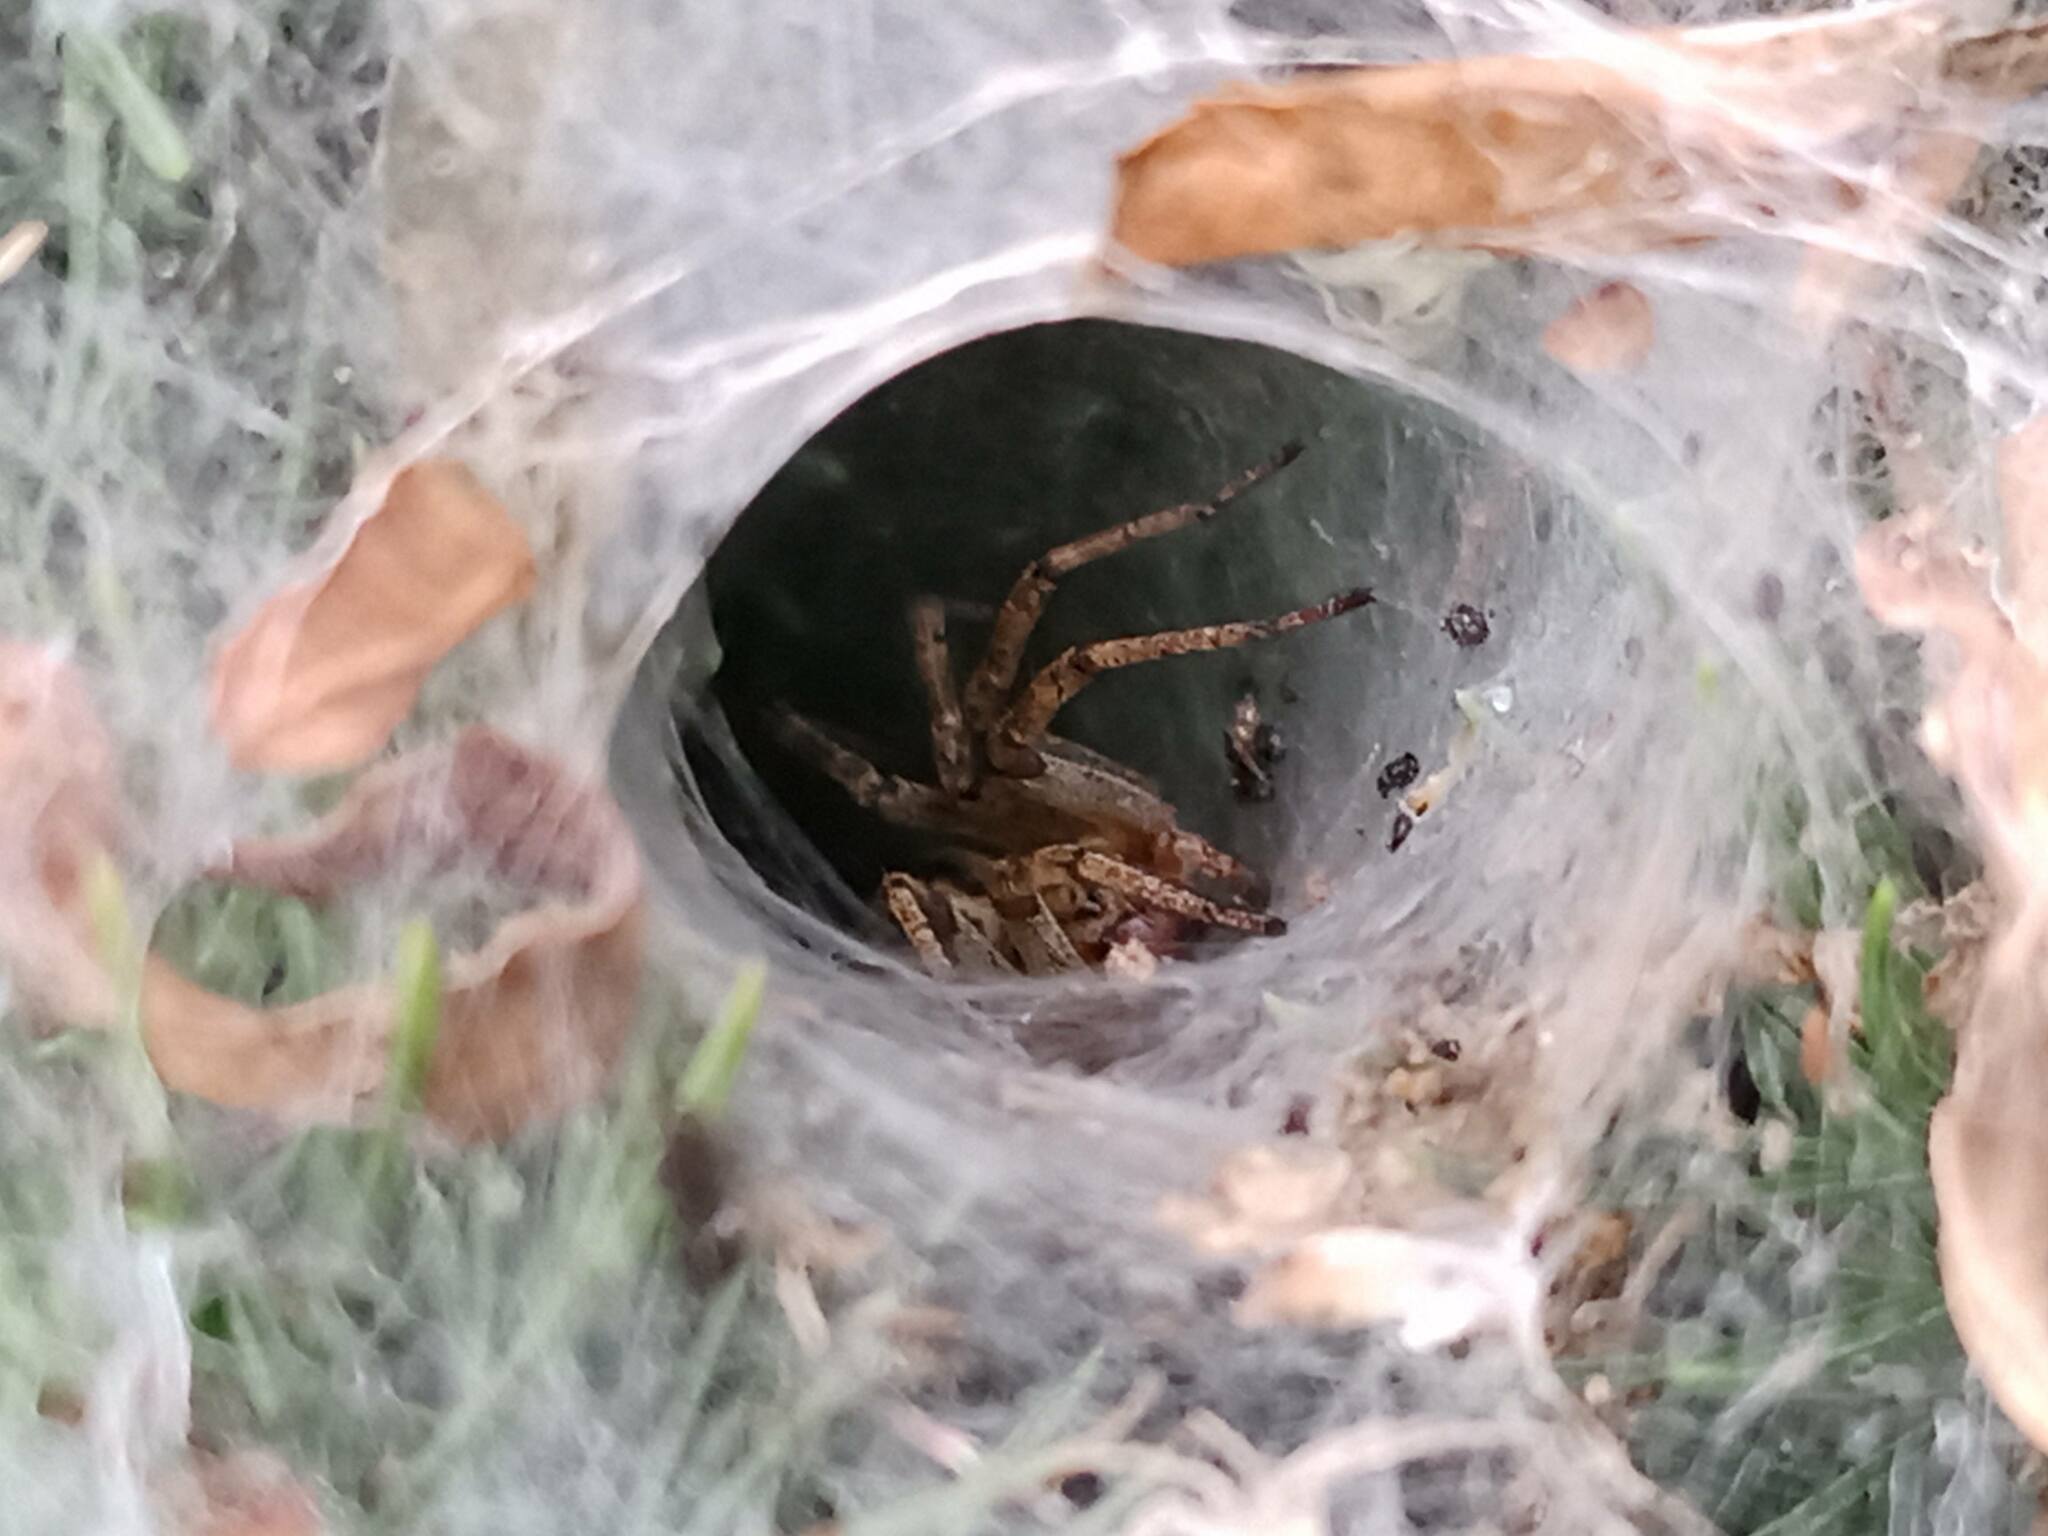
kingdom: Animalia
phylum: Arthropoda
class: Arachnida
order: Araneae
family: Agelenidae
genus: Agelena
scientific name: Agelena labyrinthica
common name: Labyrinth spider
